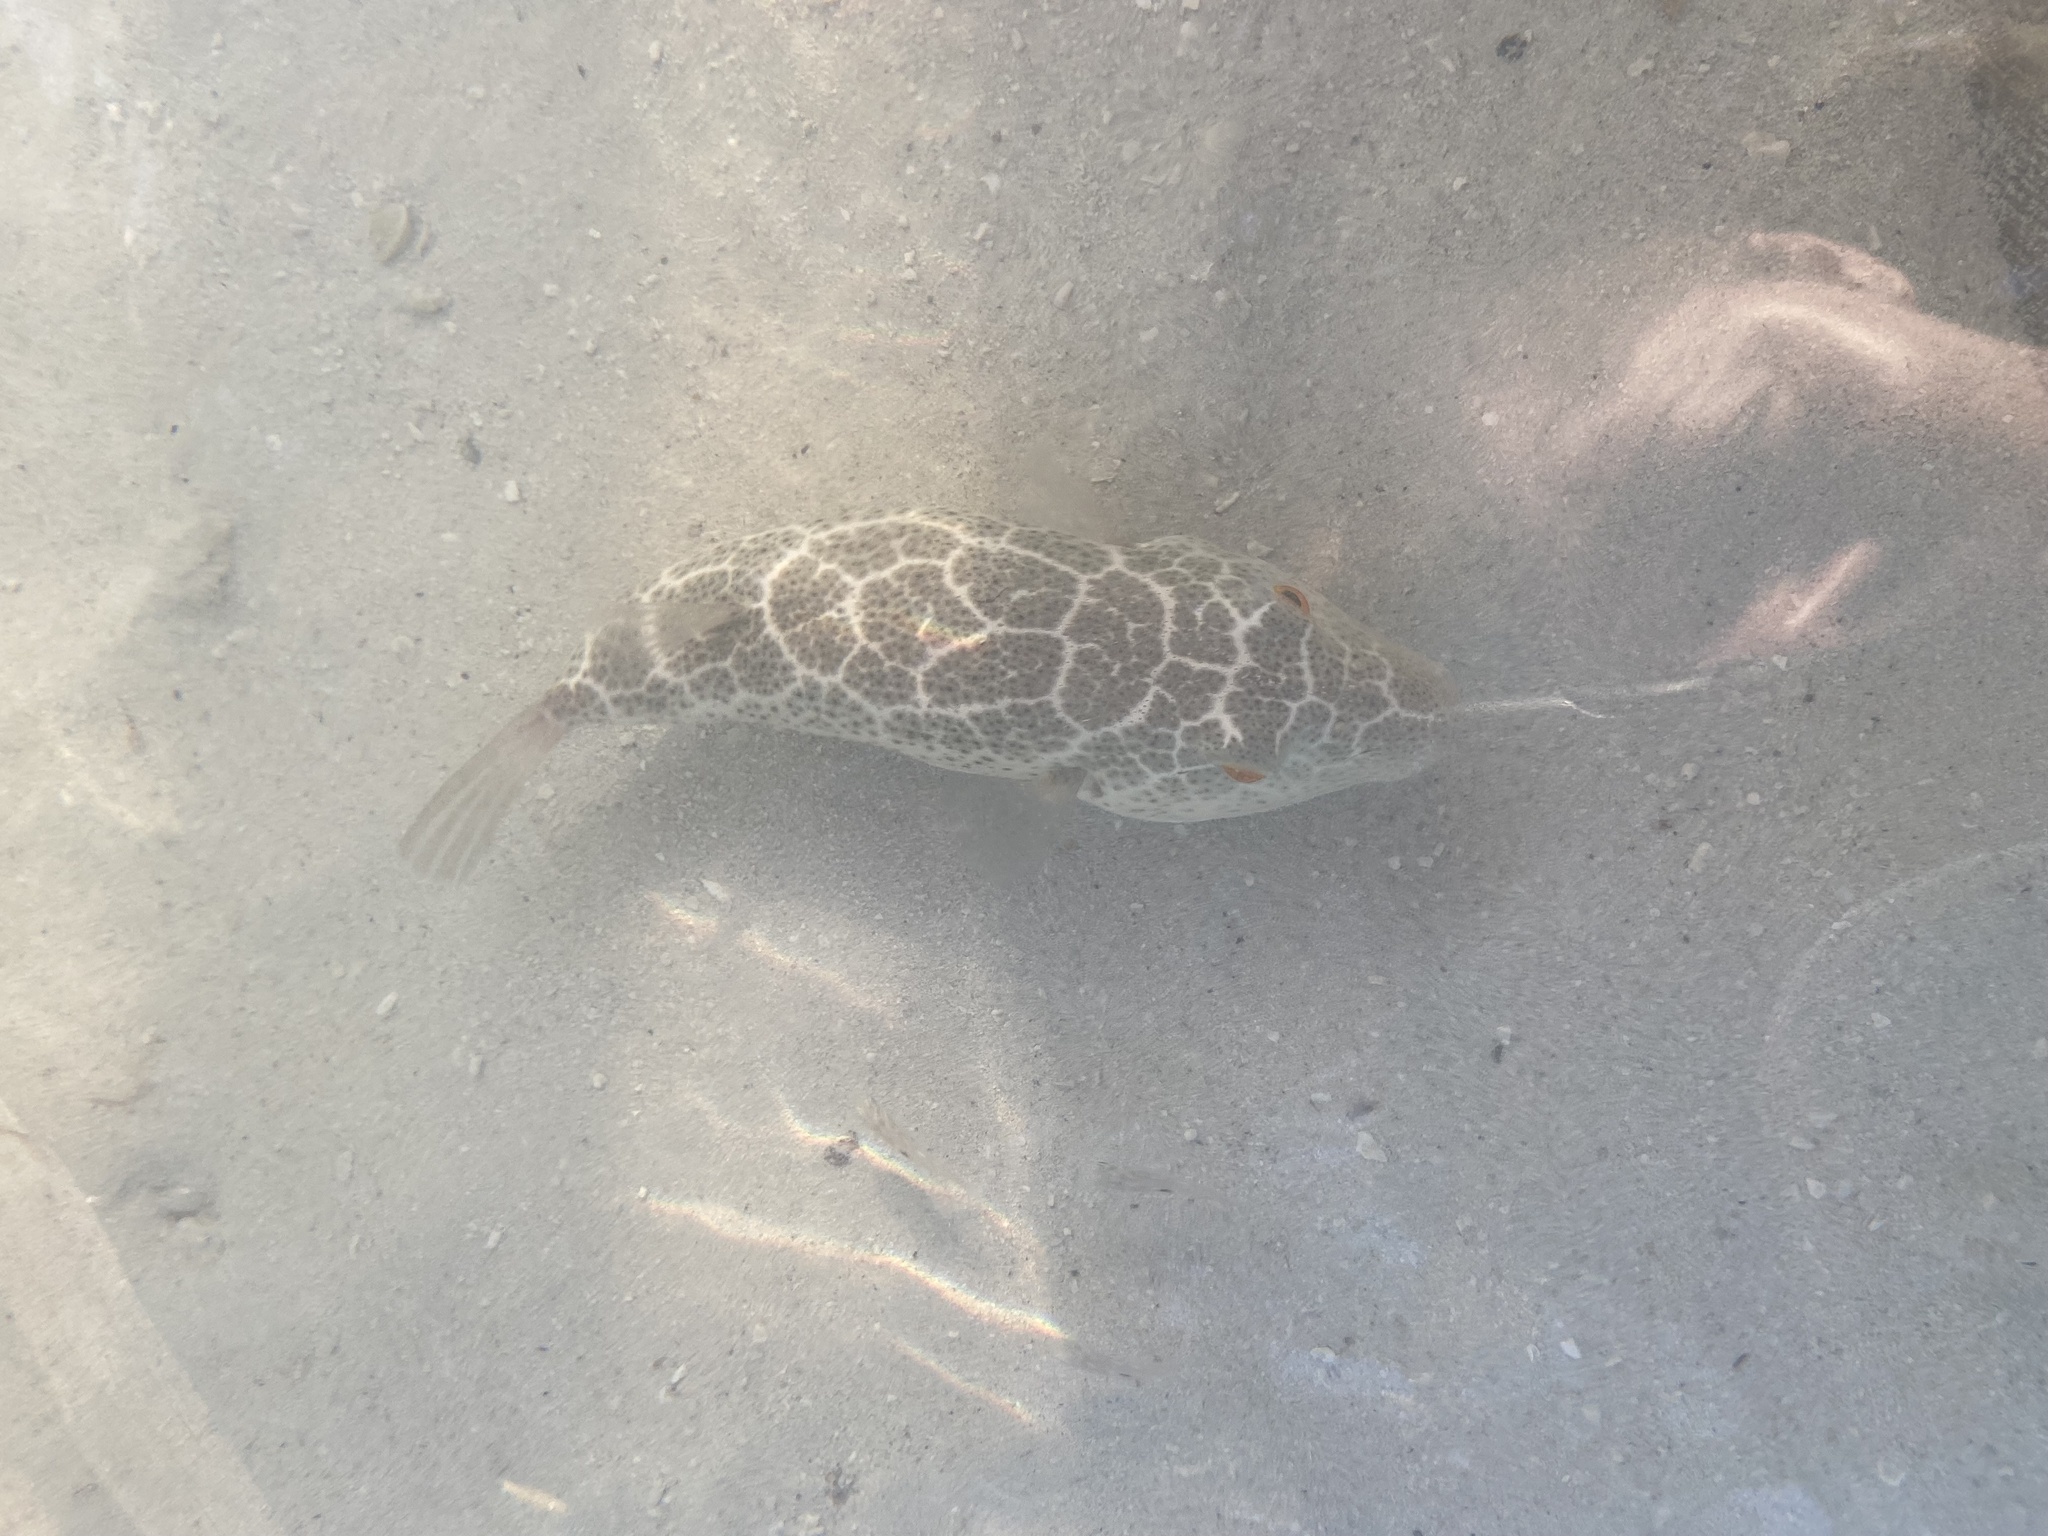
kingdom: Animalia
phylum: Chordata
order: Tetraodontiformes
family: Tetraodontidae
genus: Sphoeroides
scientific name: Sphoeroides testudineus
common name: Checkered puffer
